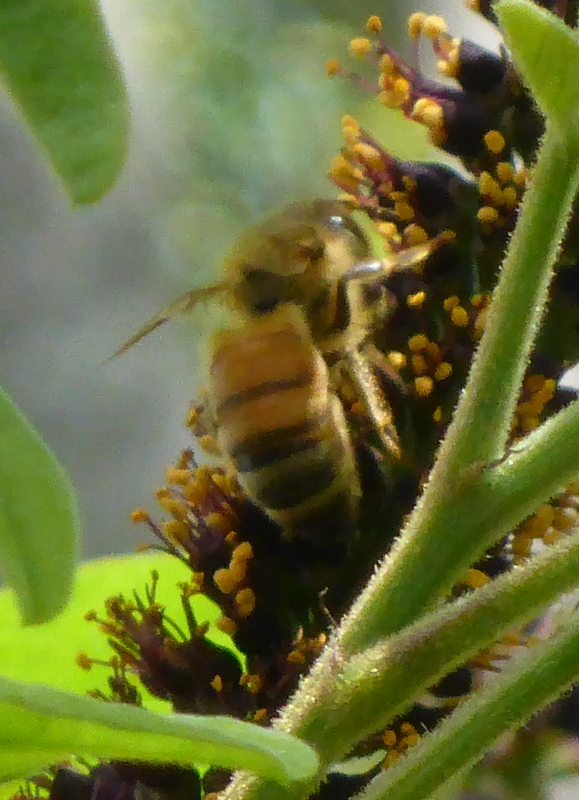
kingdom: Animalia
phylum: Arthropoda
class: Insecta
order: Hymenoptera
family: Apidae
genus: Apis
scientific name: Apis mellifera
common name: Honey bee
